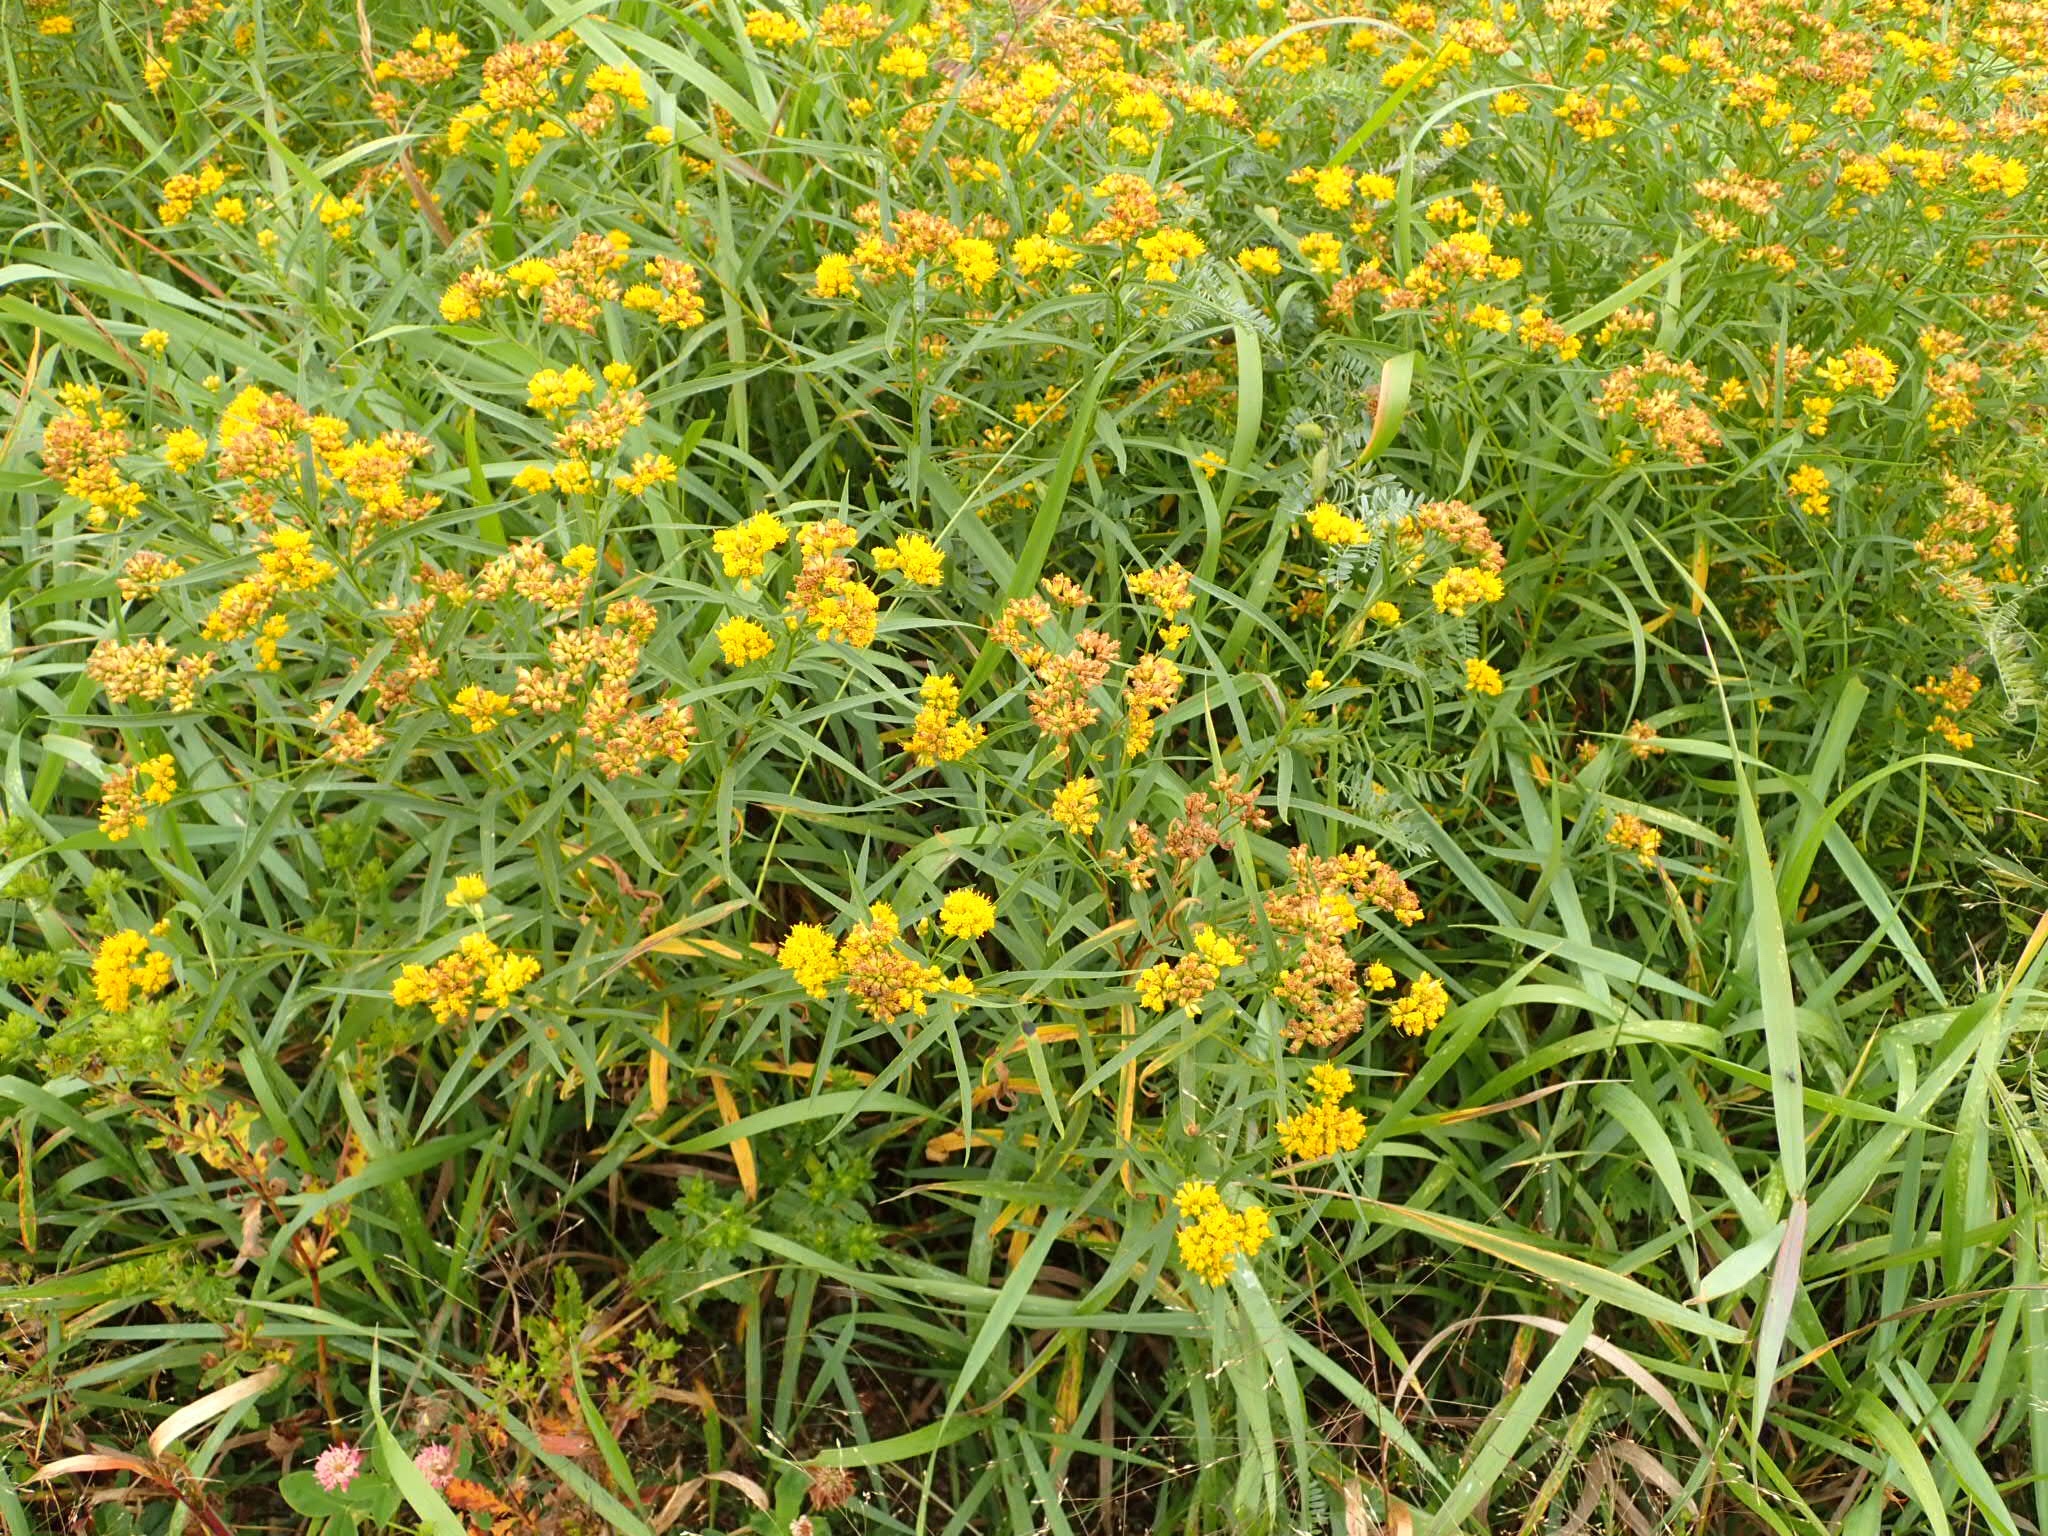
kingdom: Plantae
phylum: Tracheophyta
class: Magnoliopsida
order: Asterales
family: Asteraceae
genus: Euthamia
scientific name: Euthamia graminifolia
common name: Common goldentop
